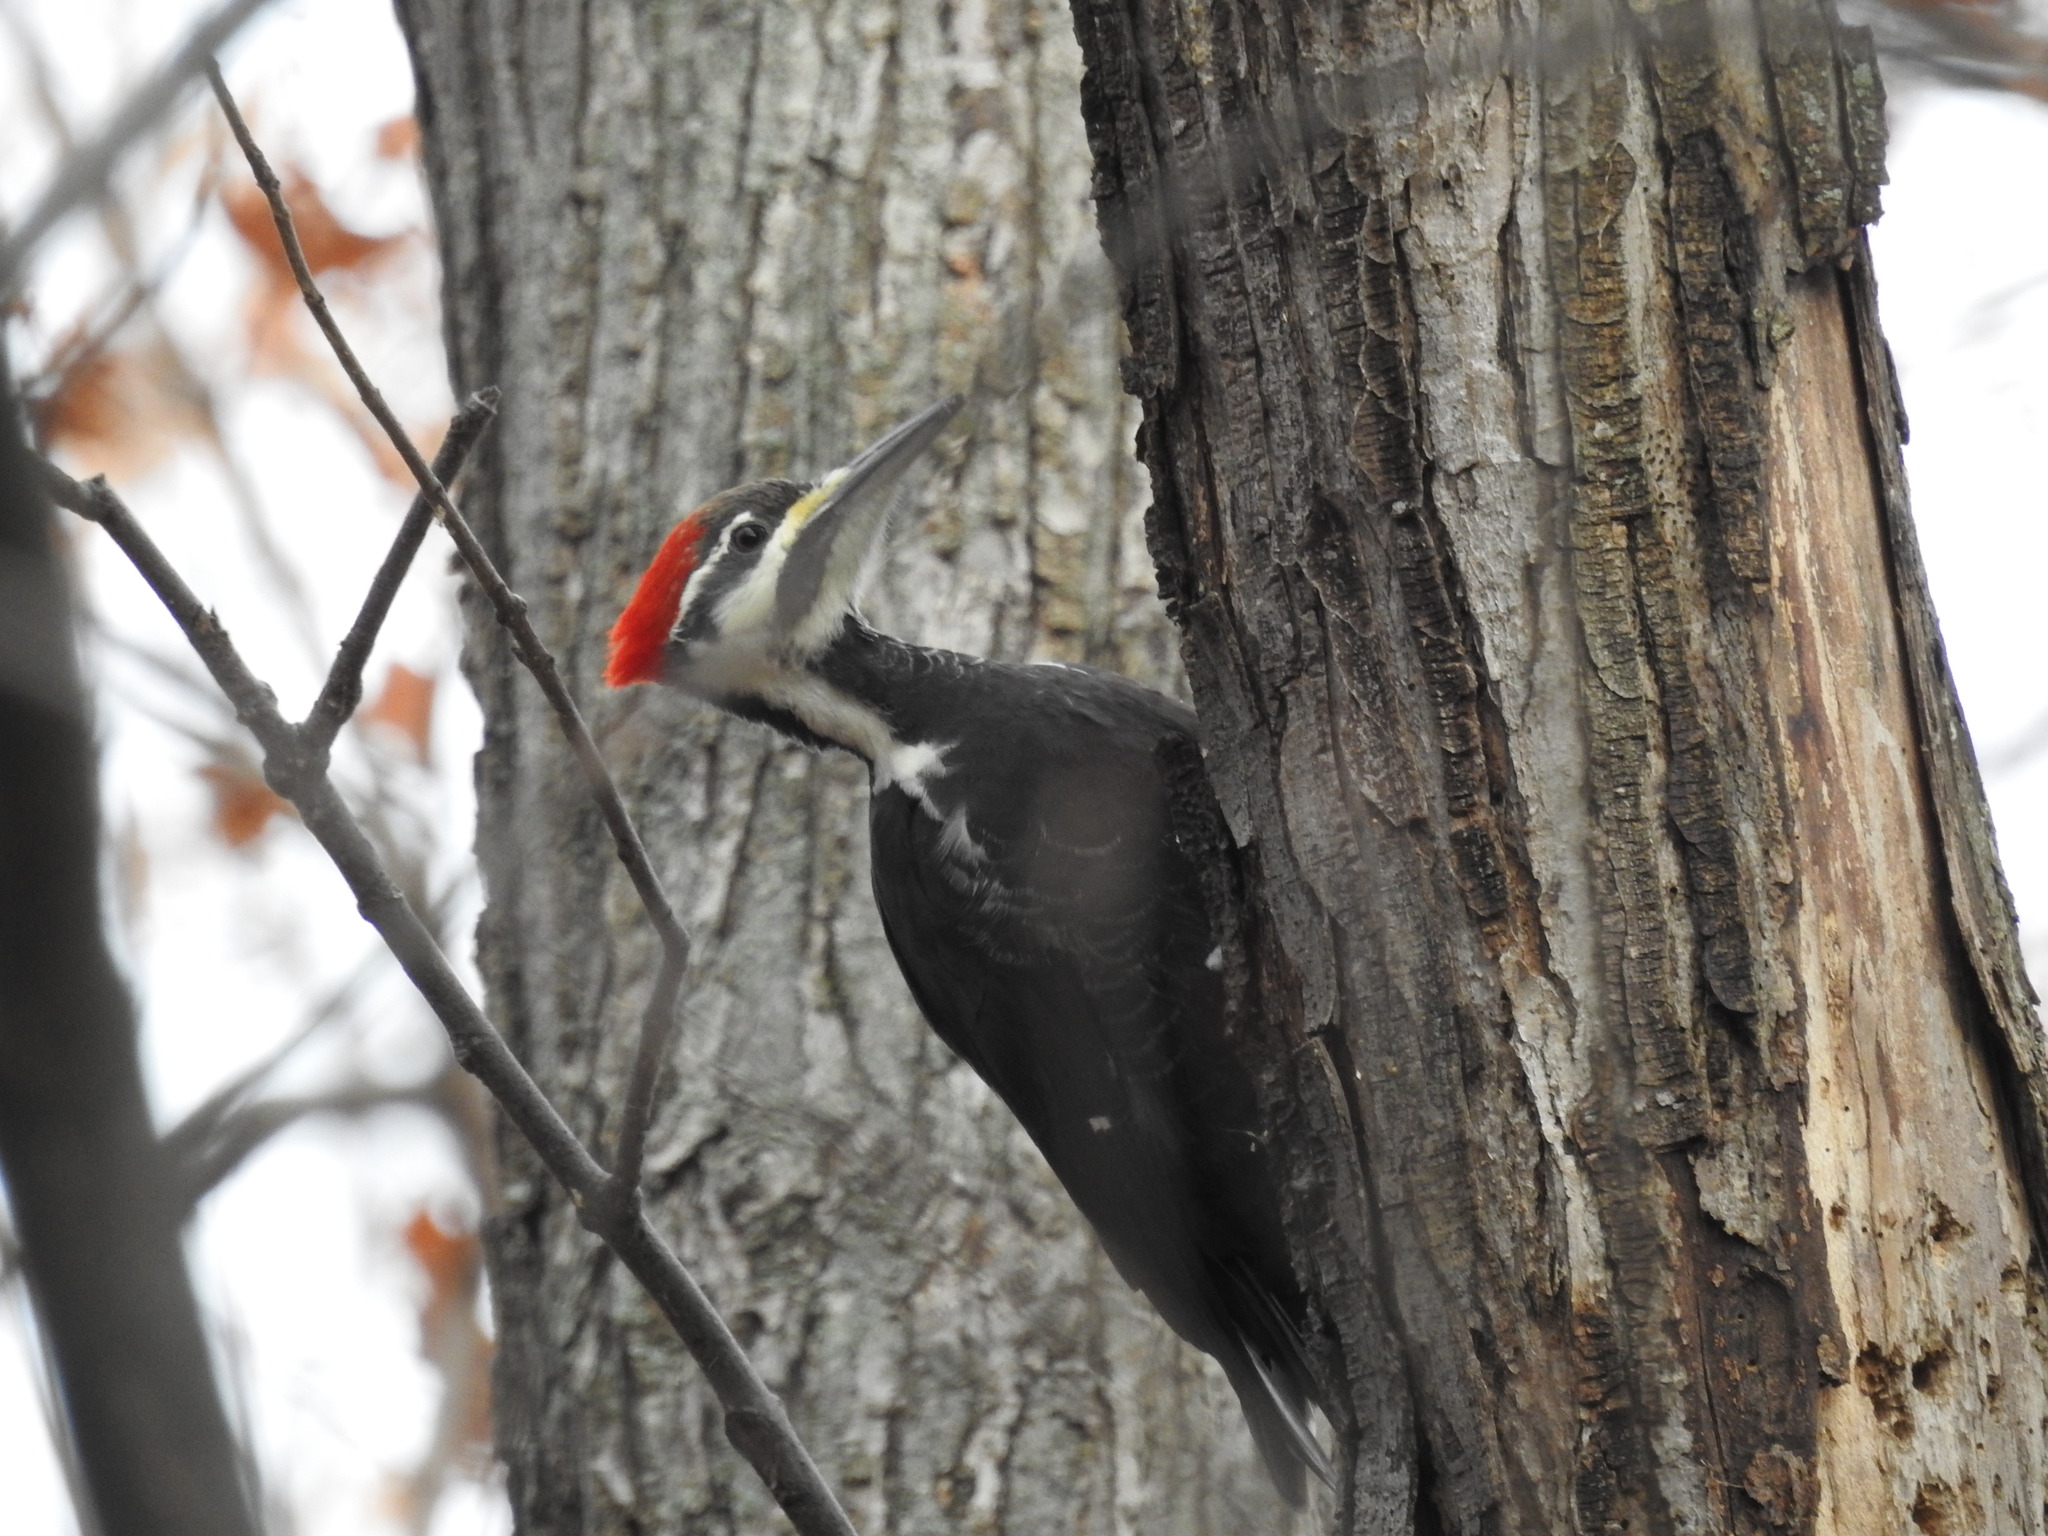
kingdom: Animalia
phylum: Chordata
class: Aves
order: Piciformes
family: Picidae
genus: Dryocopus
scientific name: Dryocopus pileatus
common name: Pileated woodpecker
